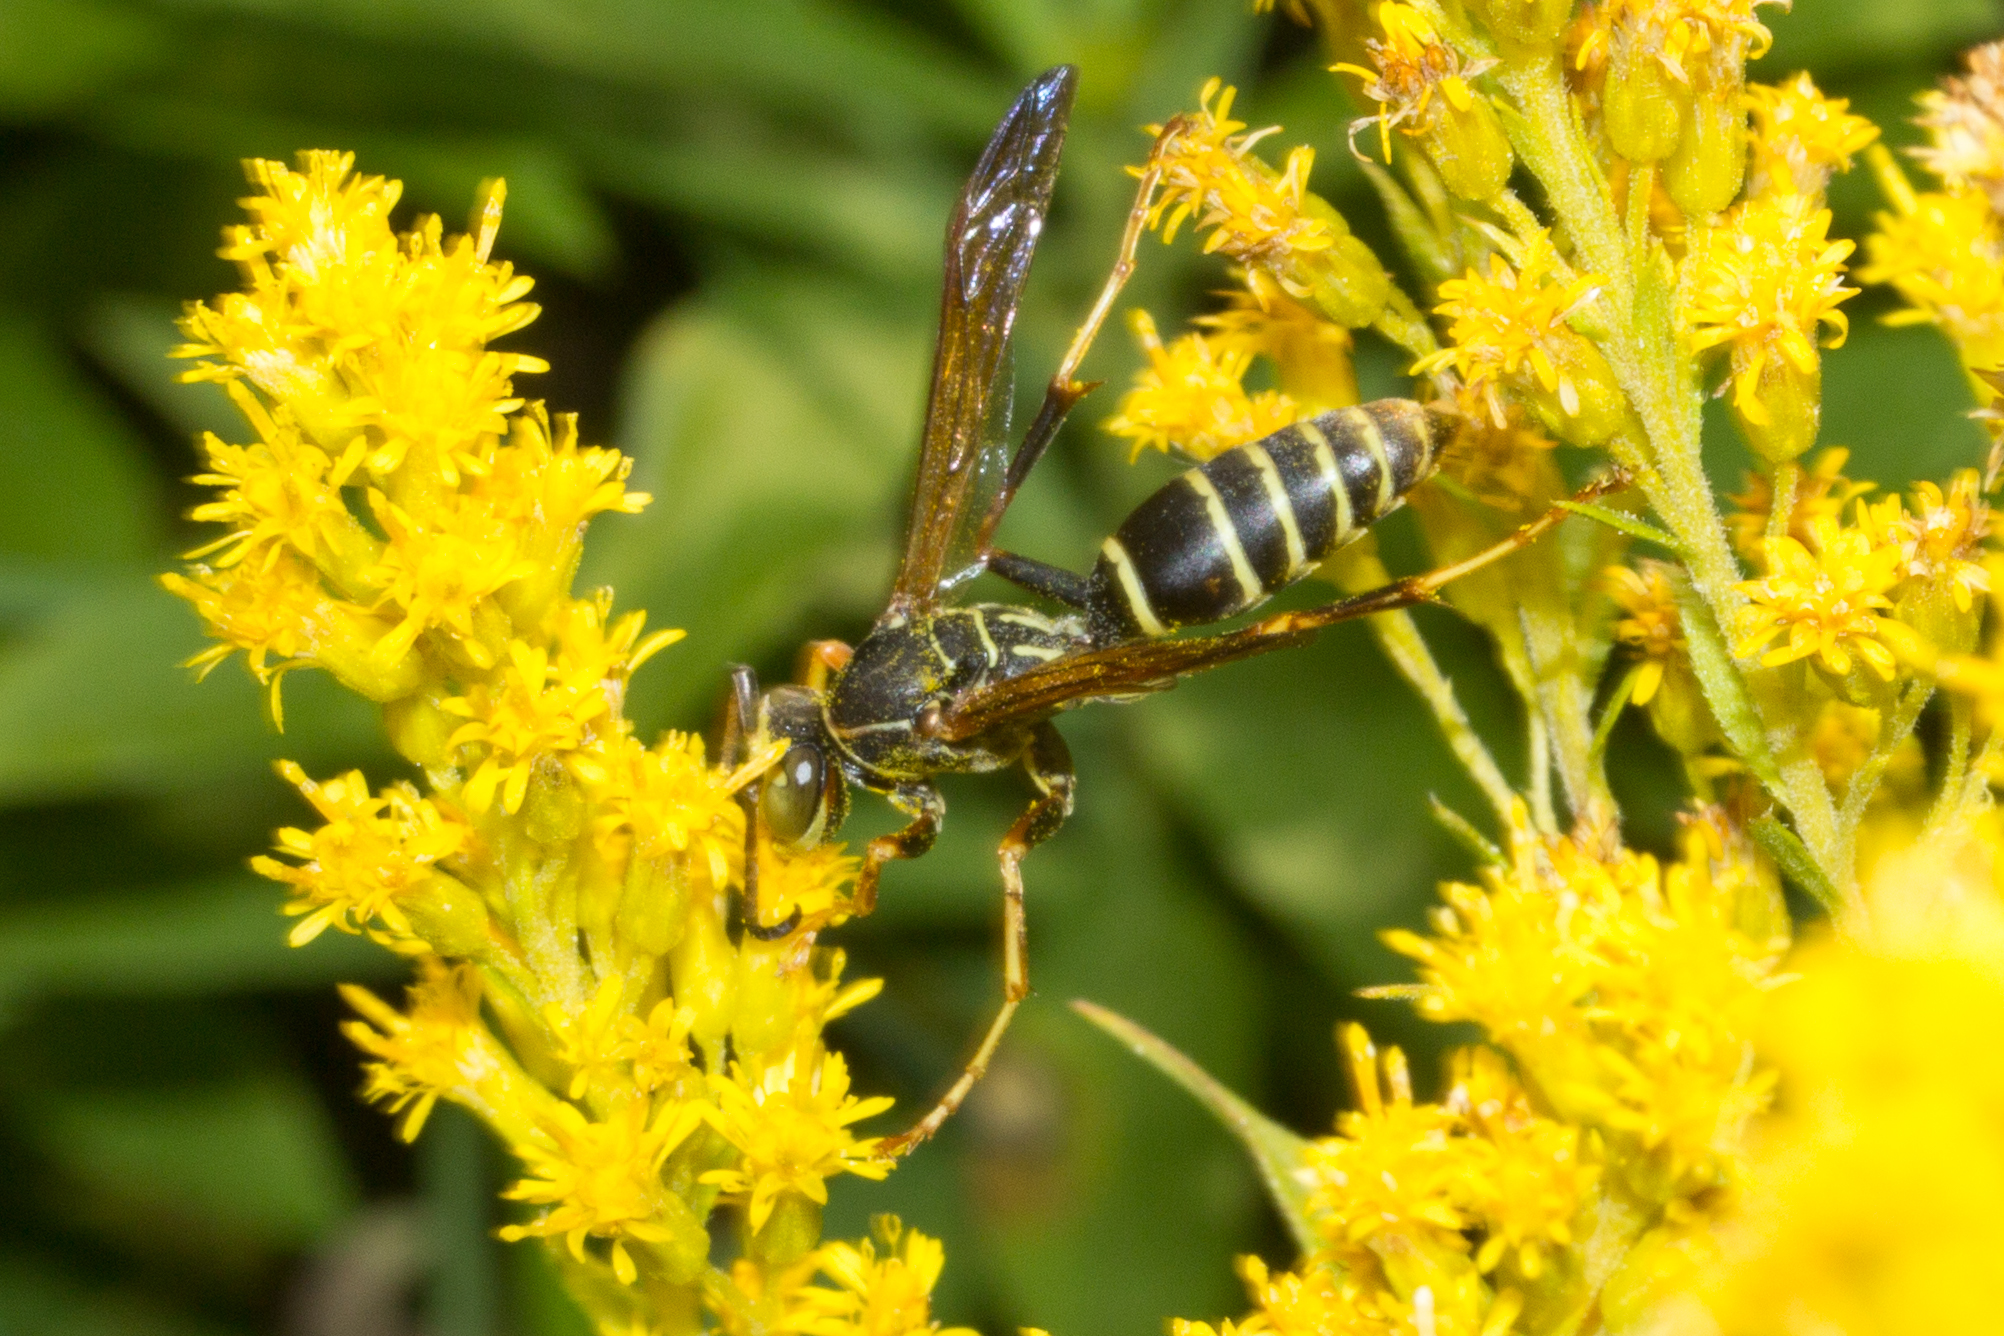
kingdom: Animalia
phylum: Arthropoda
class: Insecta
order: Hymenoptera
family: Eumenidae
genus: Polistes
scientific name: Polistes fuscatus
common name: Dark paper wasp
